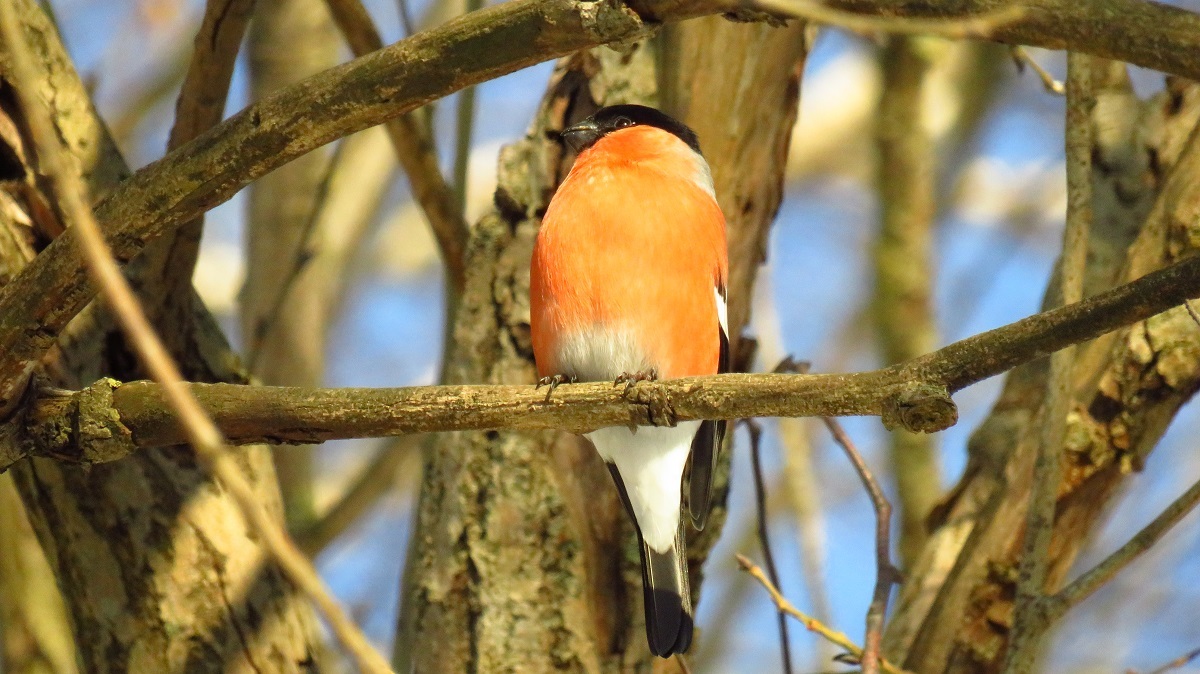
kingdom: Animalia
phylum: Chordata
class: Aves
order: Passeriformes
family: Fringillidae
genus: Pyrrhula
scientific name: Pyrrhula pyrrhula
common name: Eurasian bullfinch
